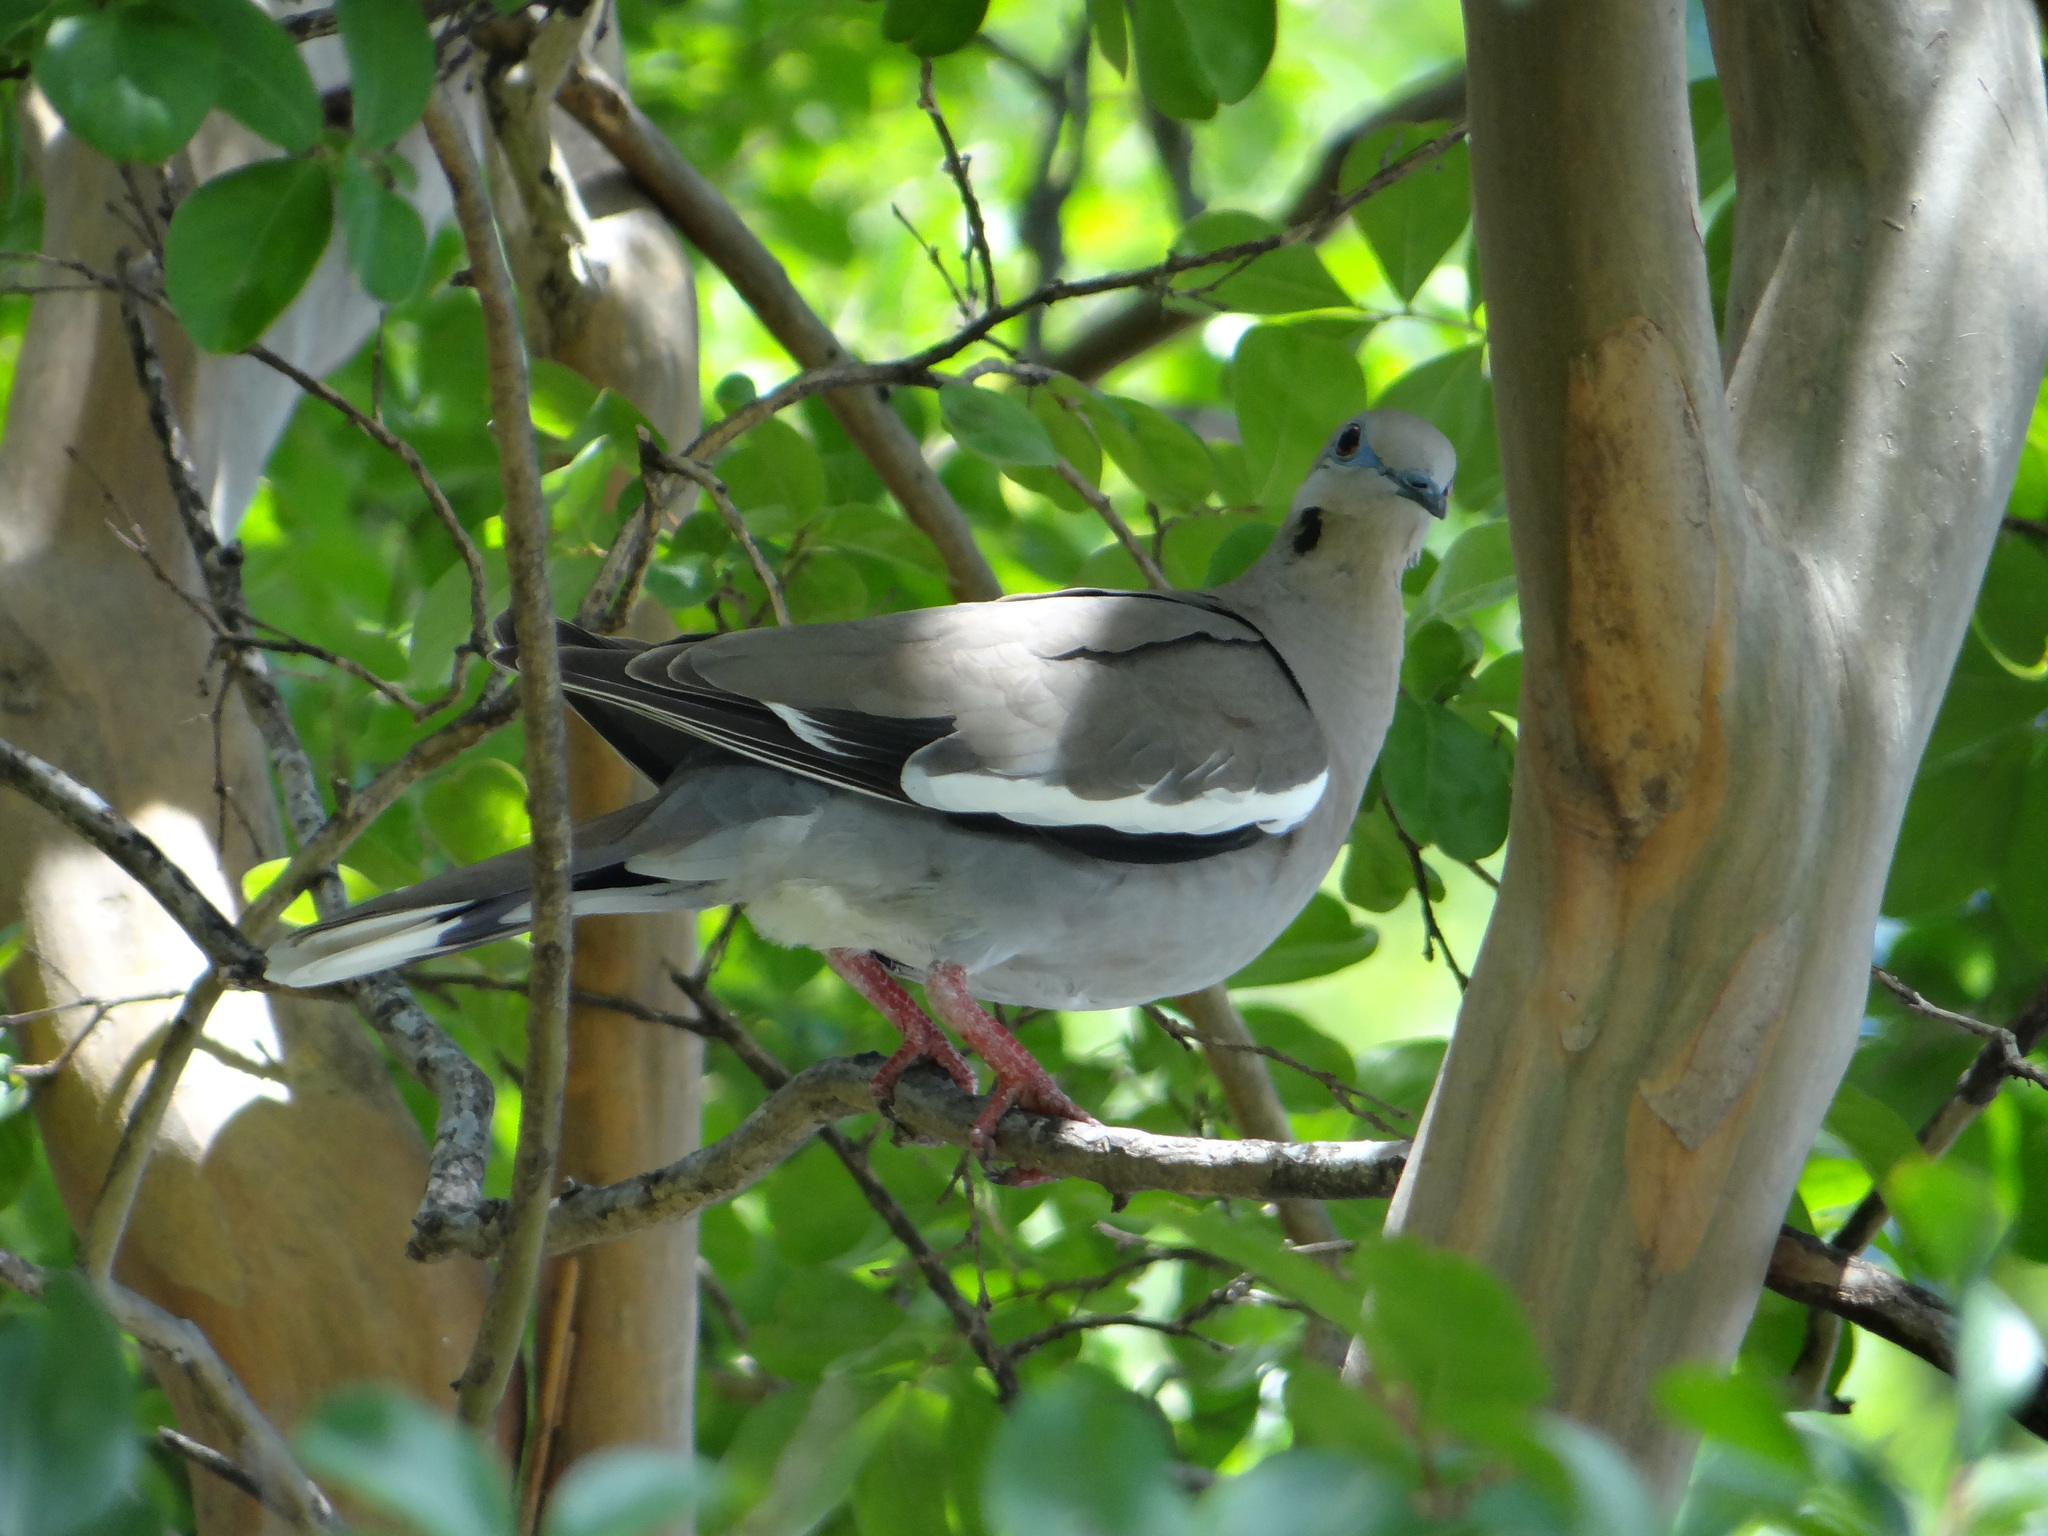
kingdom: Animalia
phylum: Chordata
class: Aves
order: Columbiformes
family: Columbidae
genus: Zenaida
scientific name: Zenaida asiatica
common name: White-winged dove
